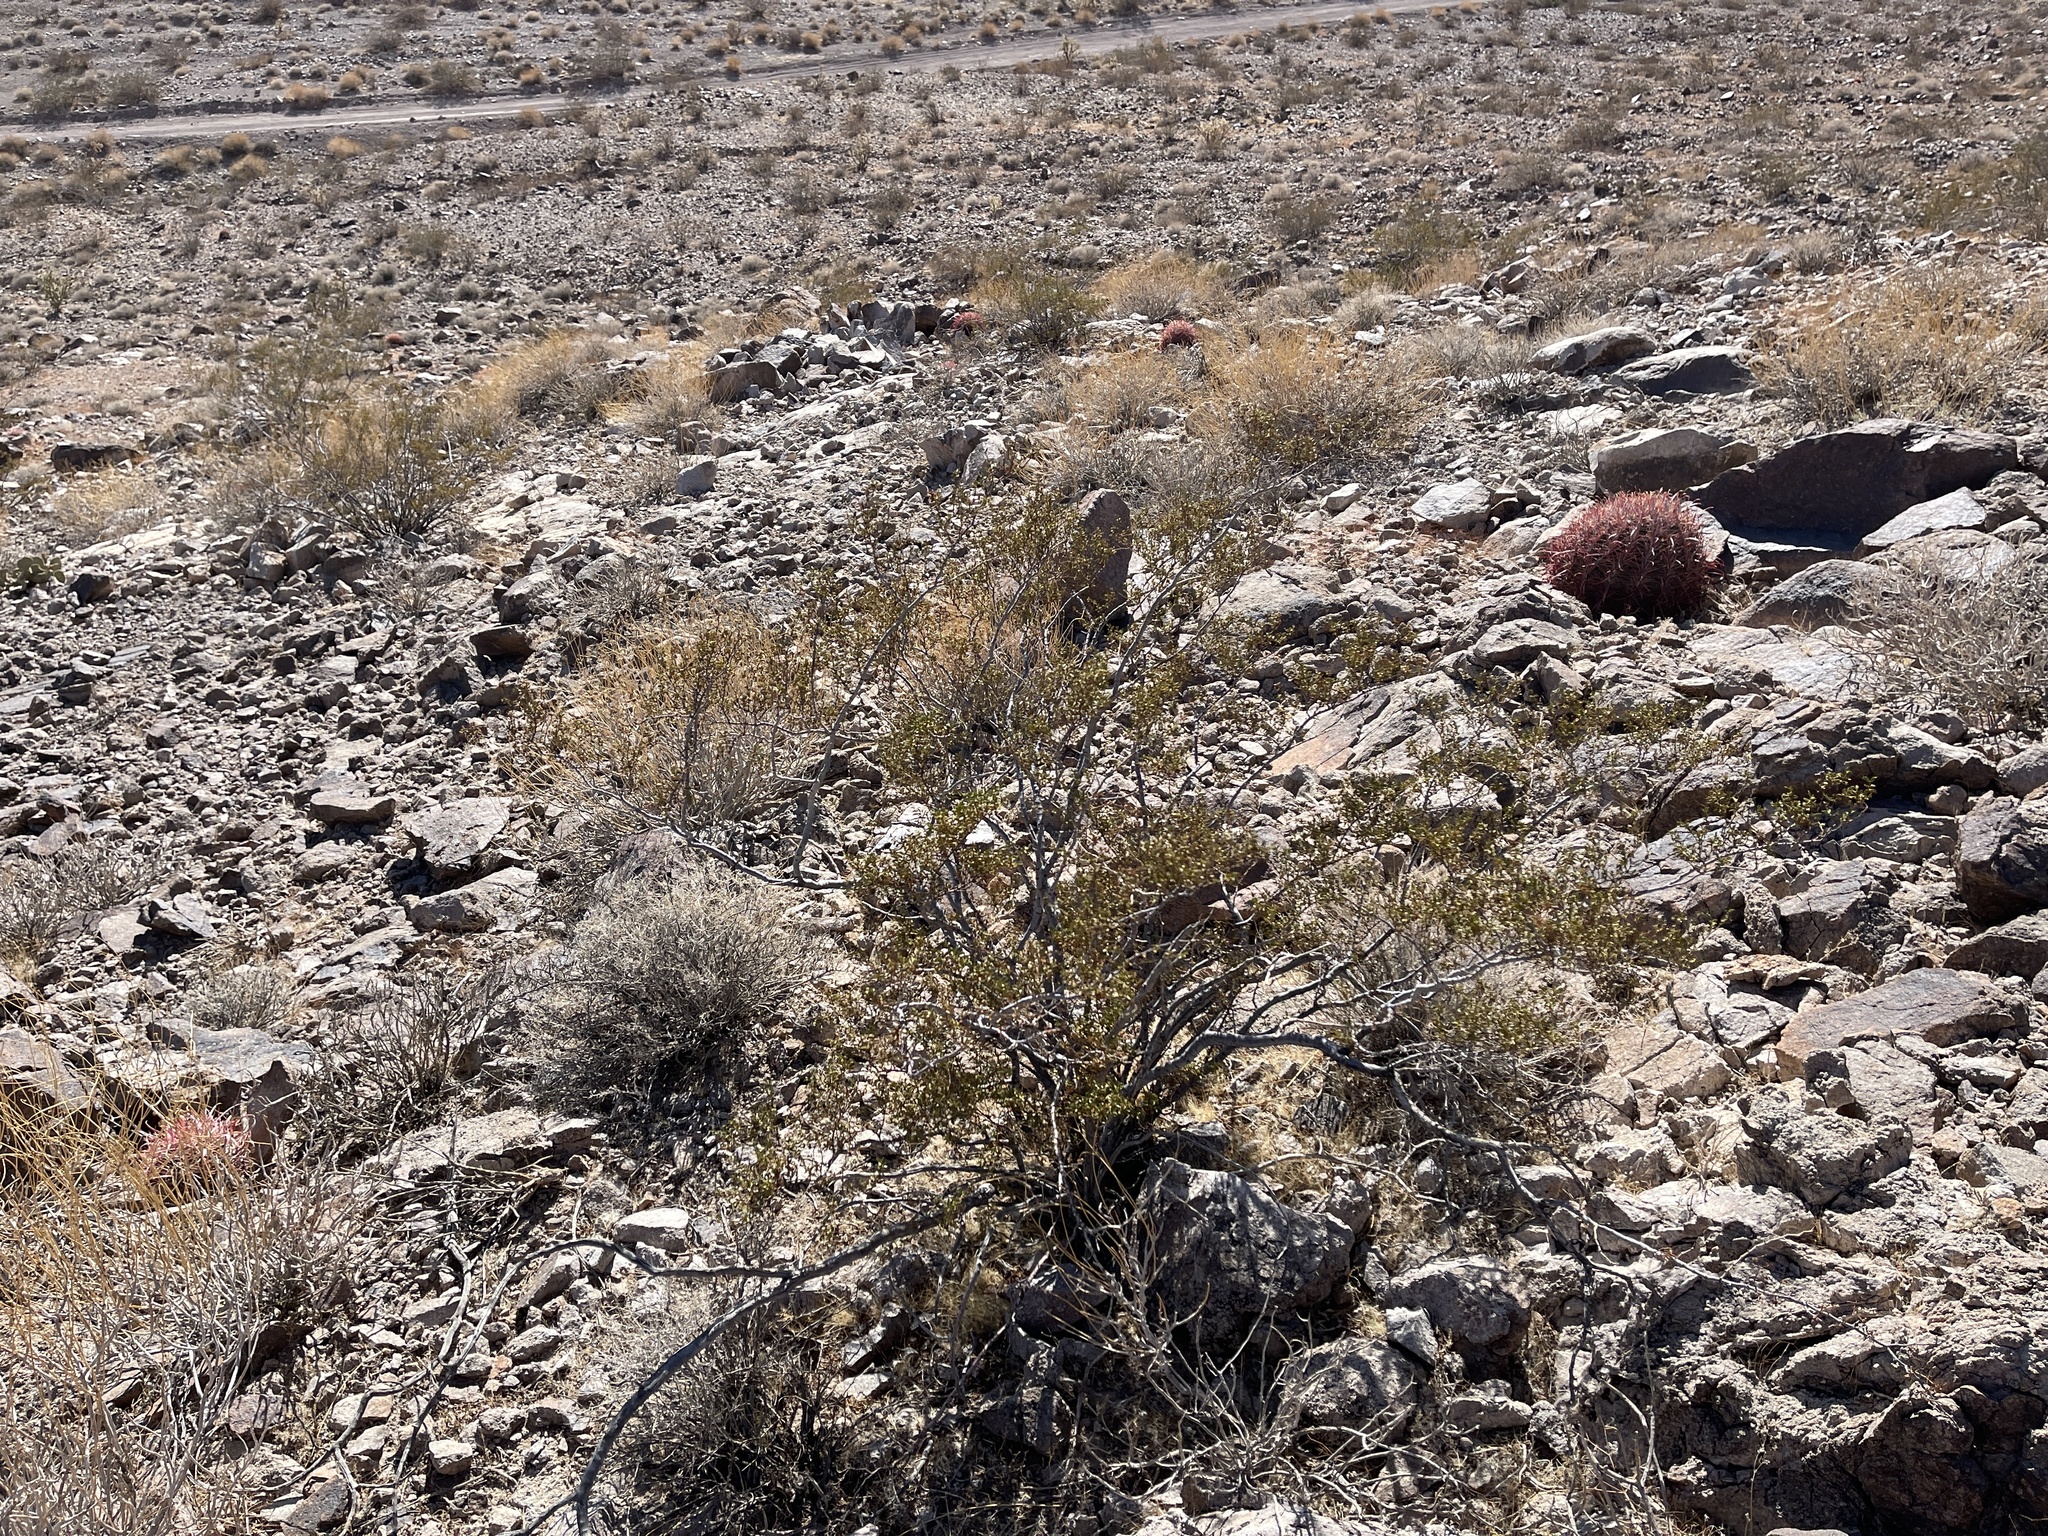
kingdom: Plantae
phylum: Tracheophyta
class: Magnoliopsida
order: Zygophyllales
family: Zygophyllaceae
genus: Larrea
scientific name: Larrea tridentata
